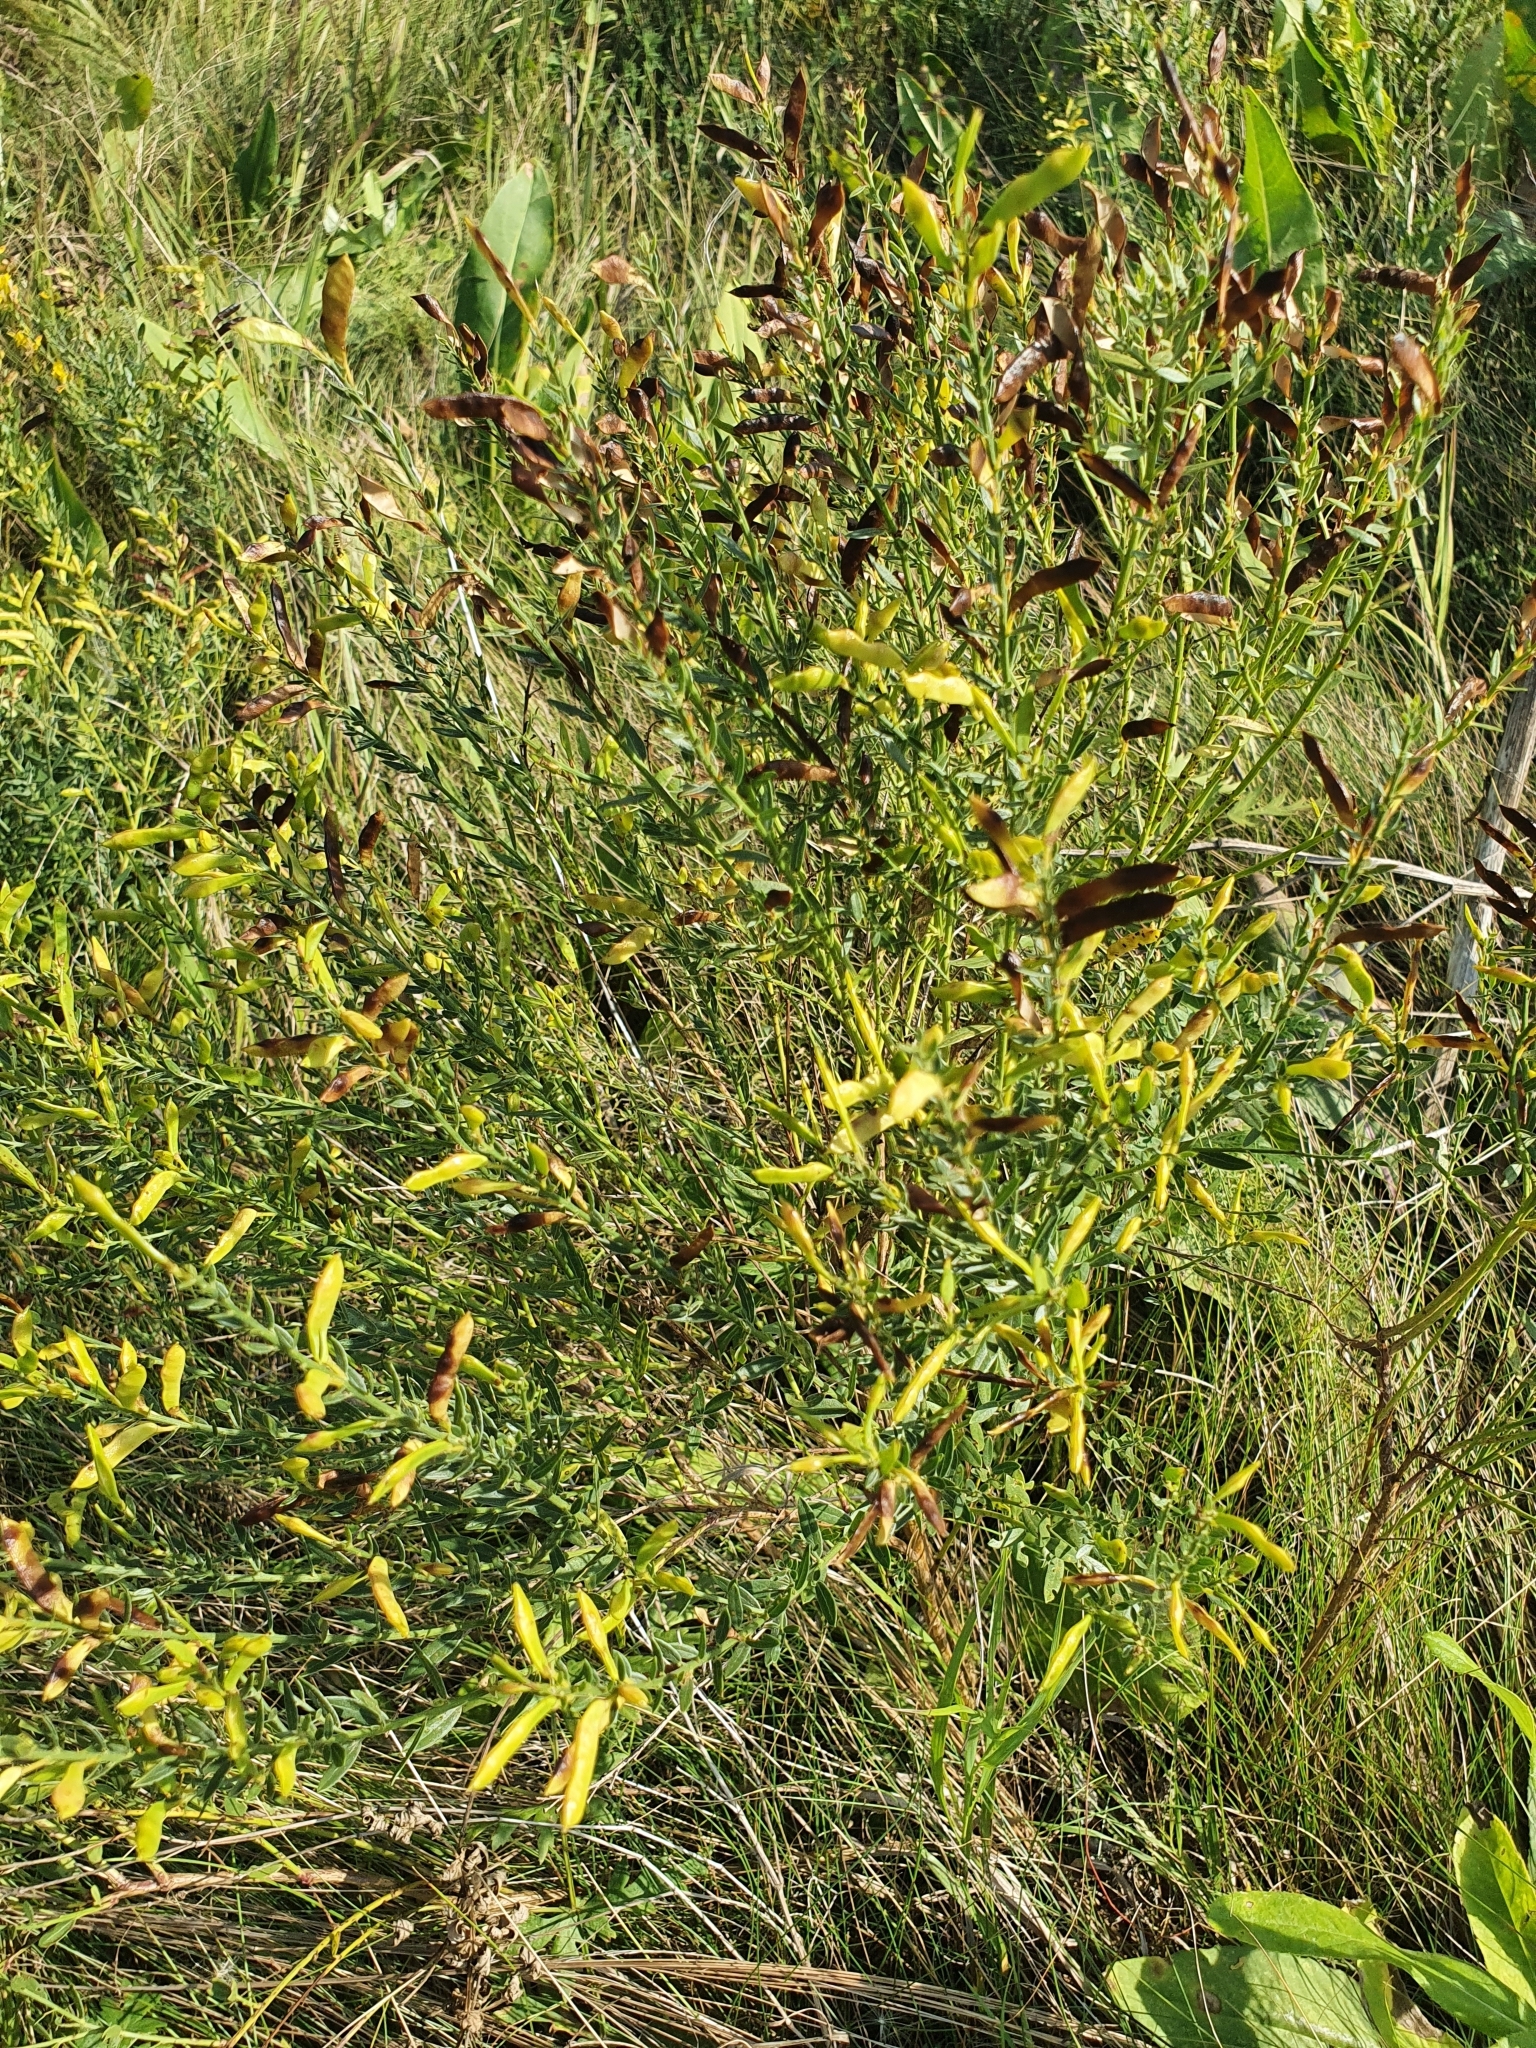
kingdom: Plantae
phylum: Tracheophyta
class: Magnoliopsida
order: Fabales
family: Fabaceae
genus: Genista
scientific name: Genista tinctoria
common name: Dyer's greenweed
